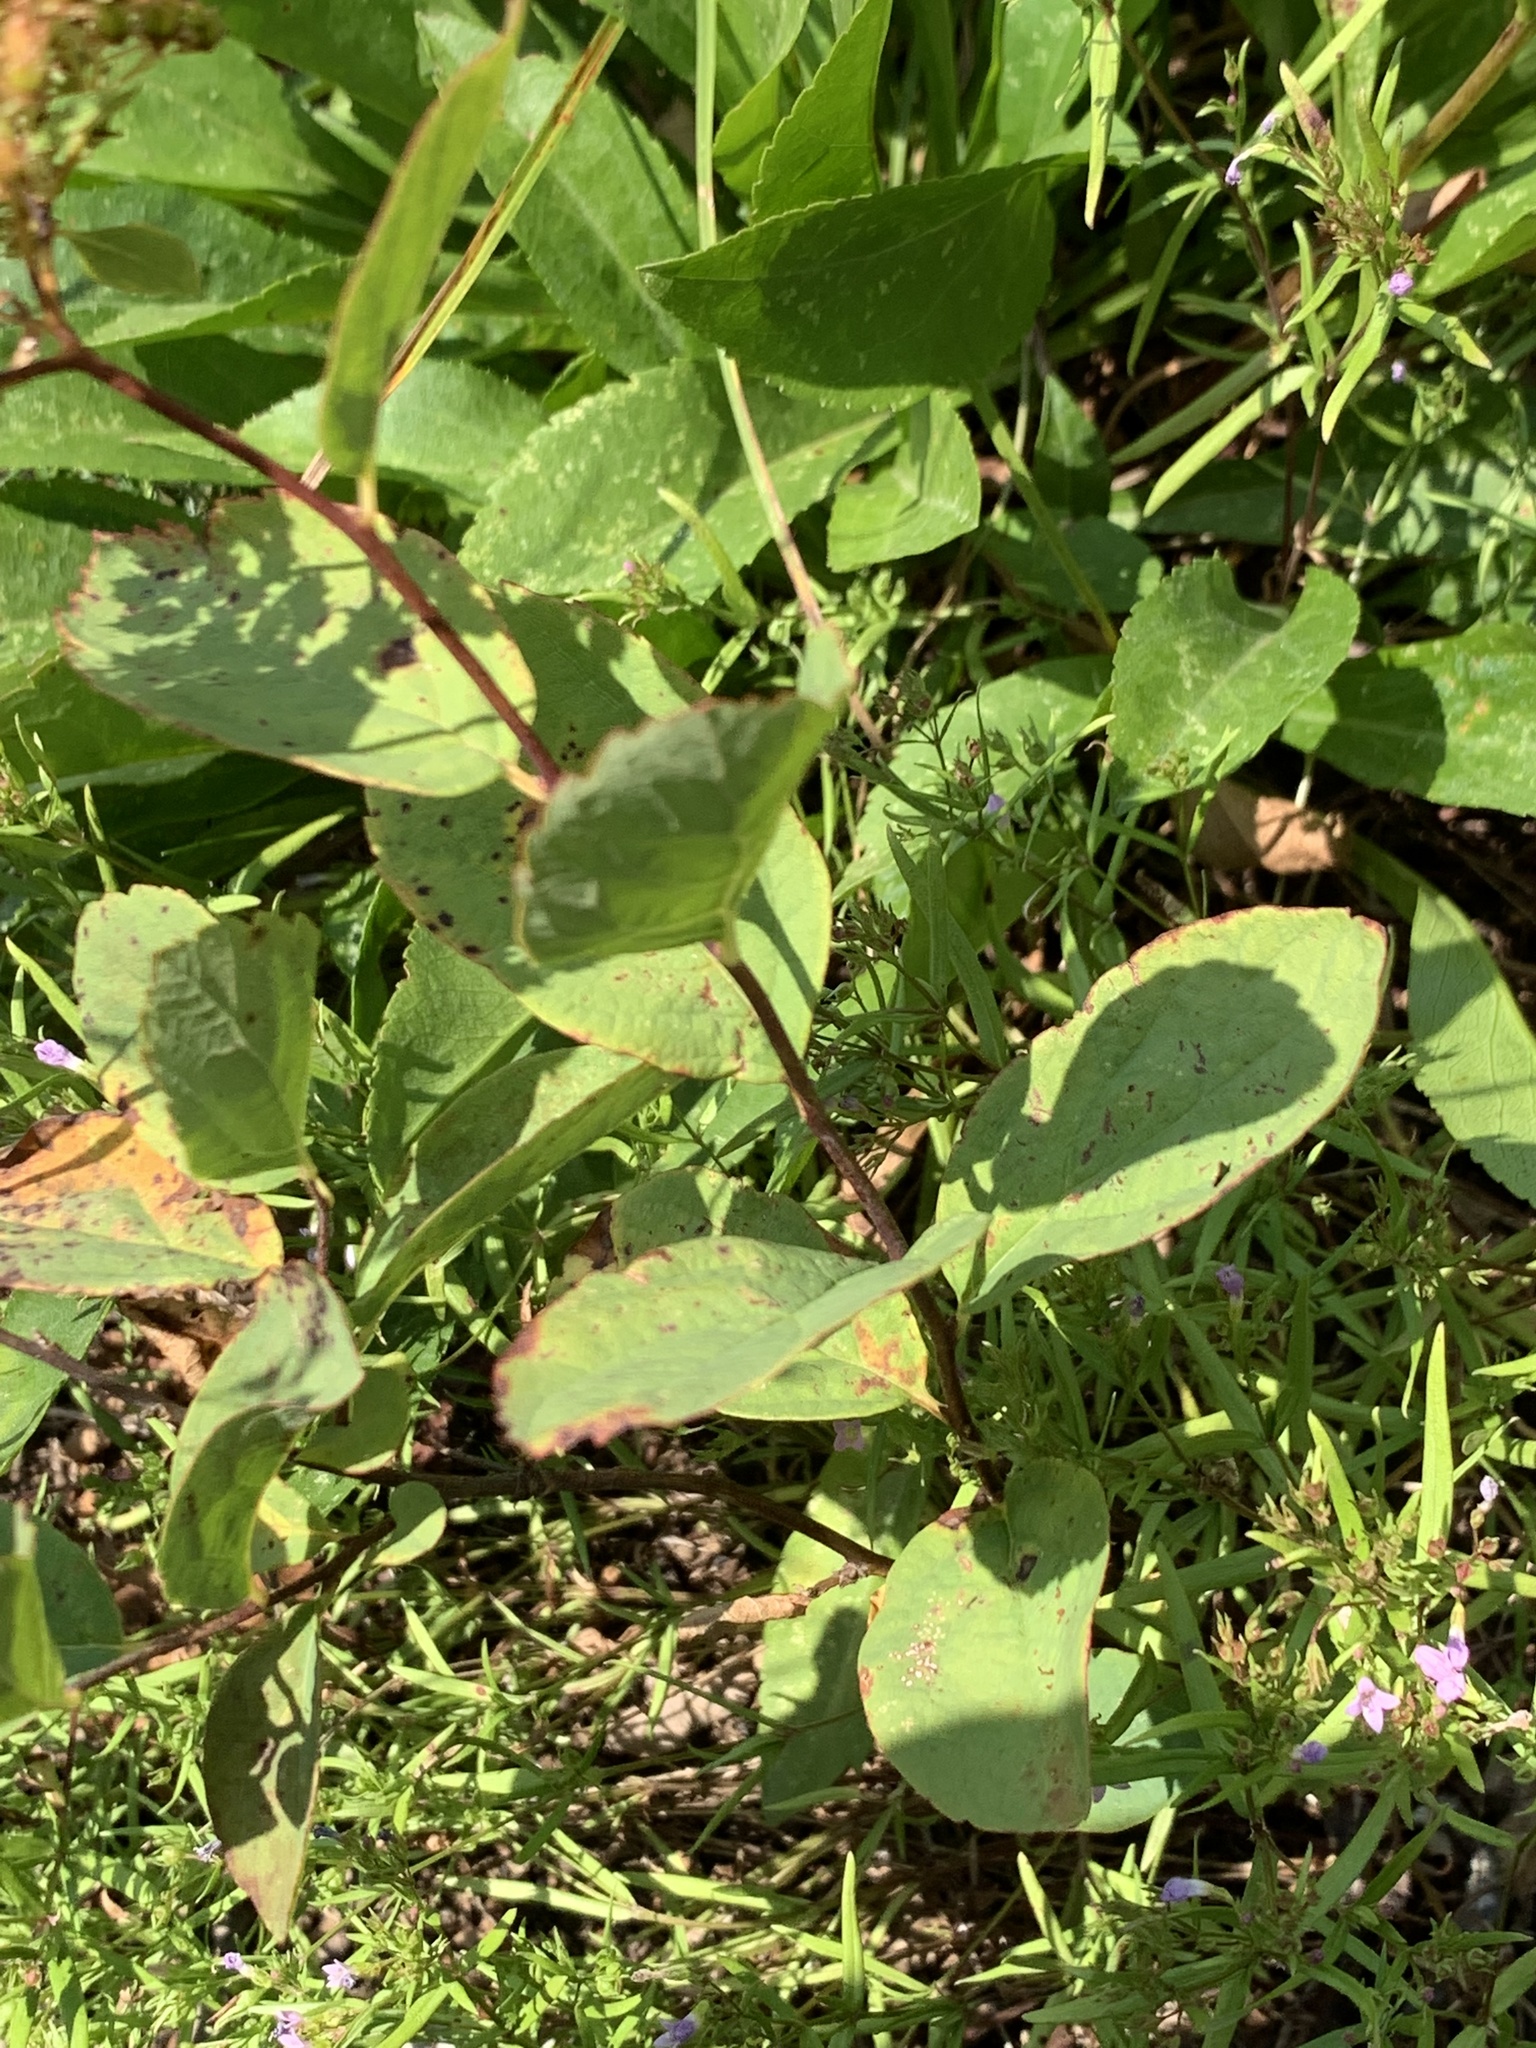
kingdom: Plantae
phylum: Tracheophyta
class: Magnoliopsida
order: Rosales
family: Rosaceae
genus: Spiraea
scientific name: Spiraea corymbosa
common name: Corymbed meadowsweet
